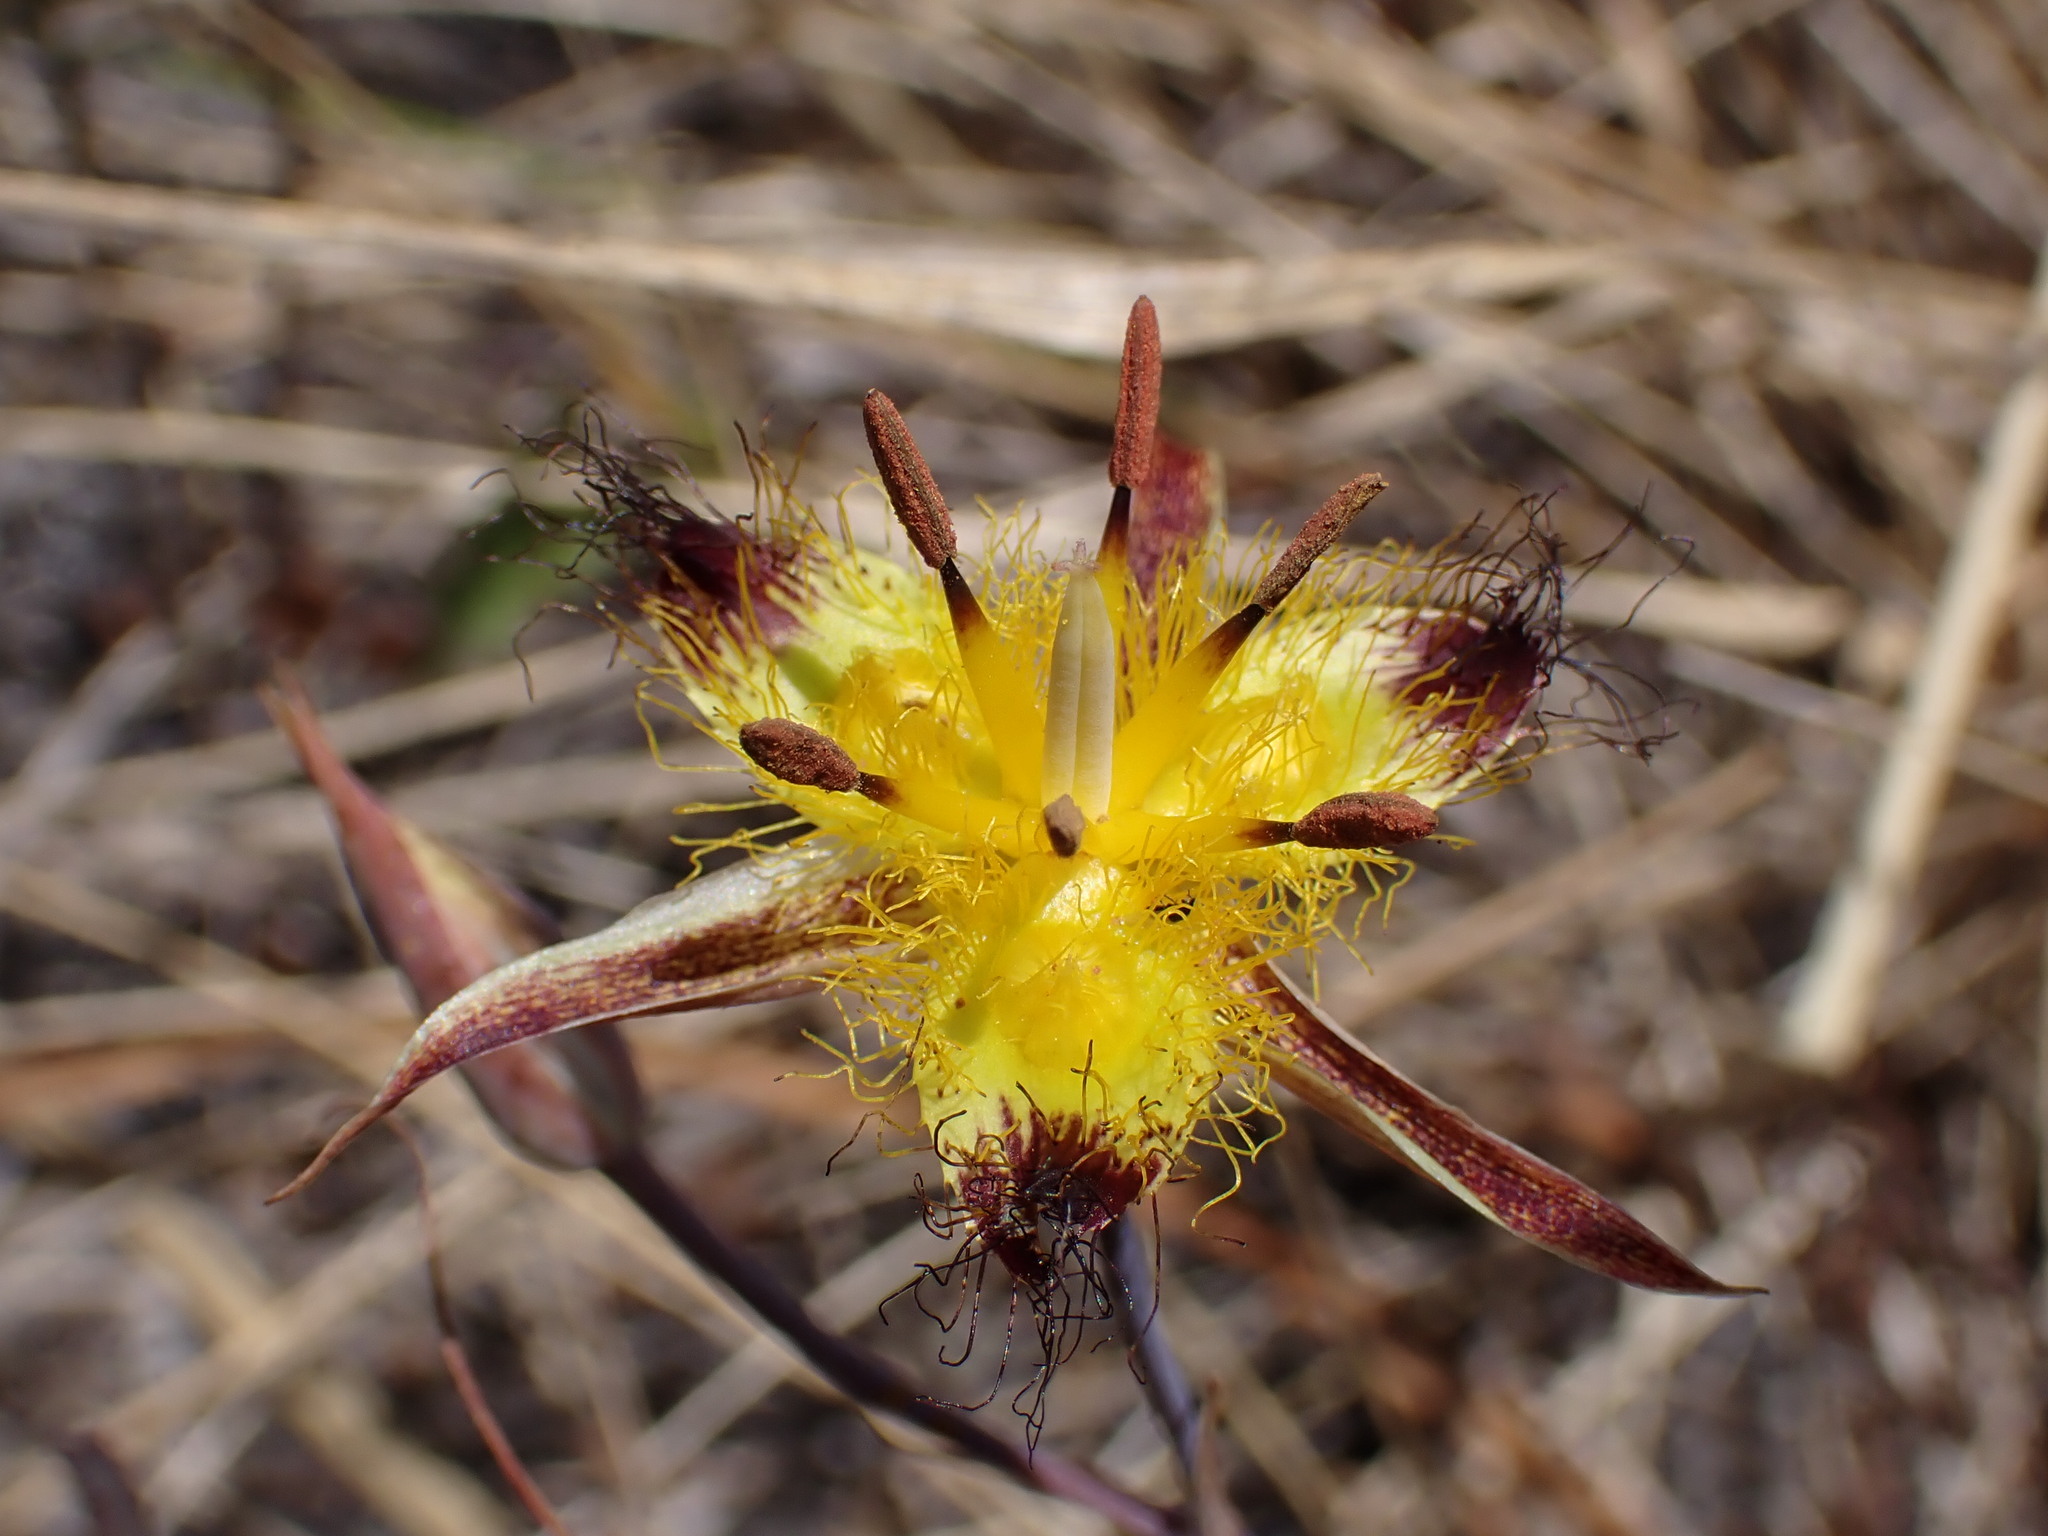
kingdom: Plantae
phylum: Tracheophyta
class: Liliopsida
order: Liliales
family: Liliaceae
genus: Calochortus
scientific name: Calochortus obispoensis
